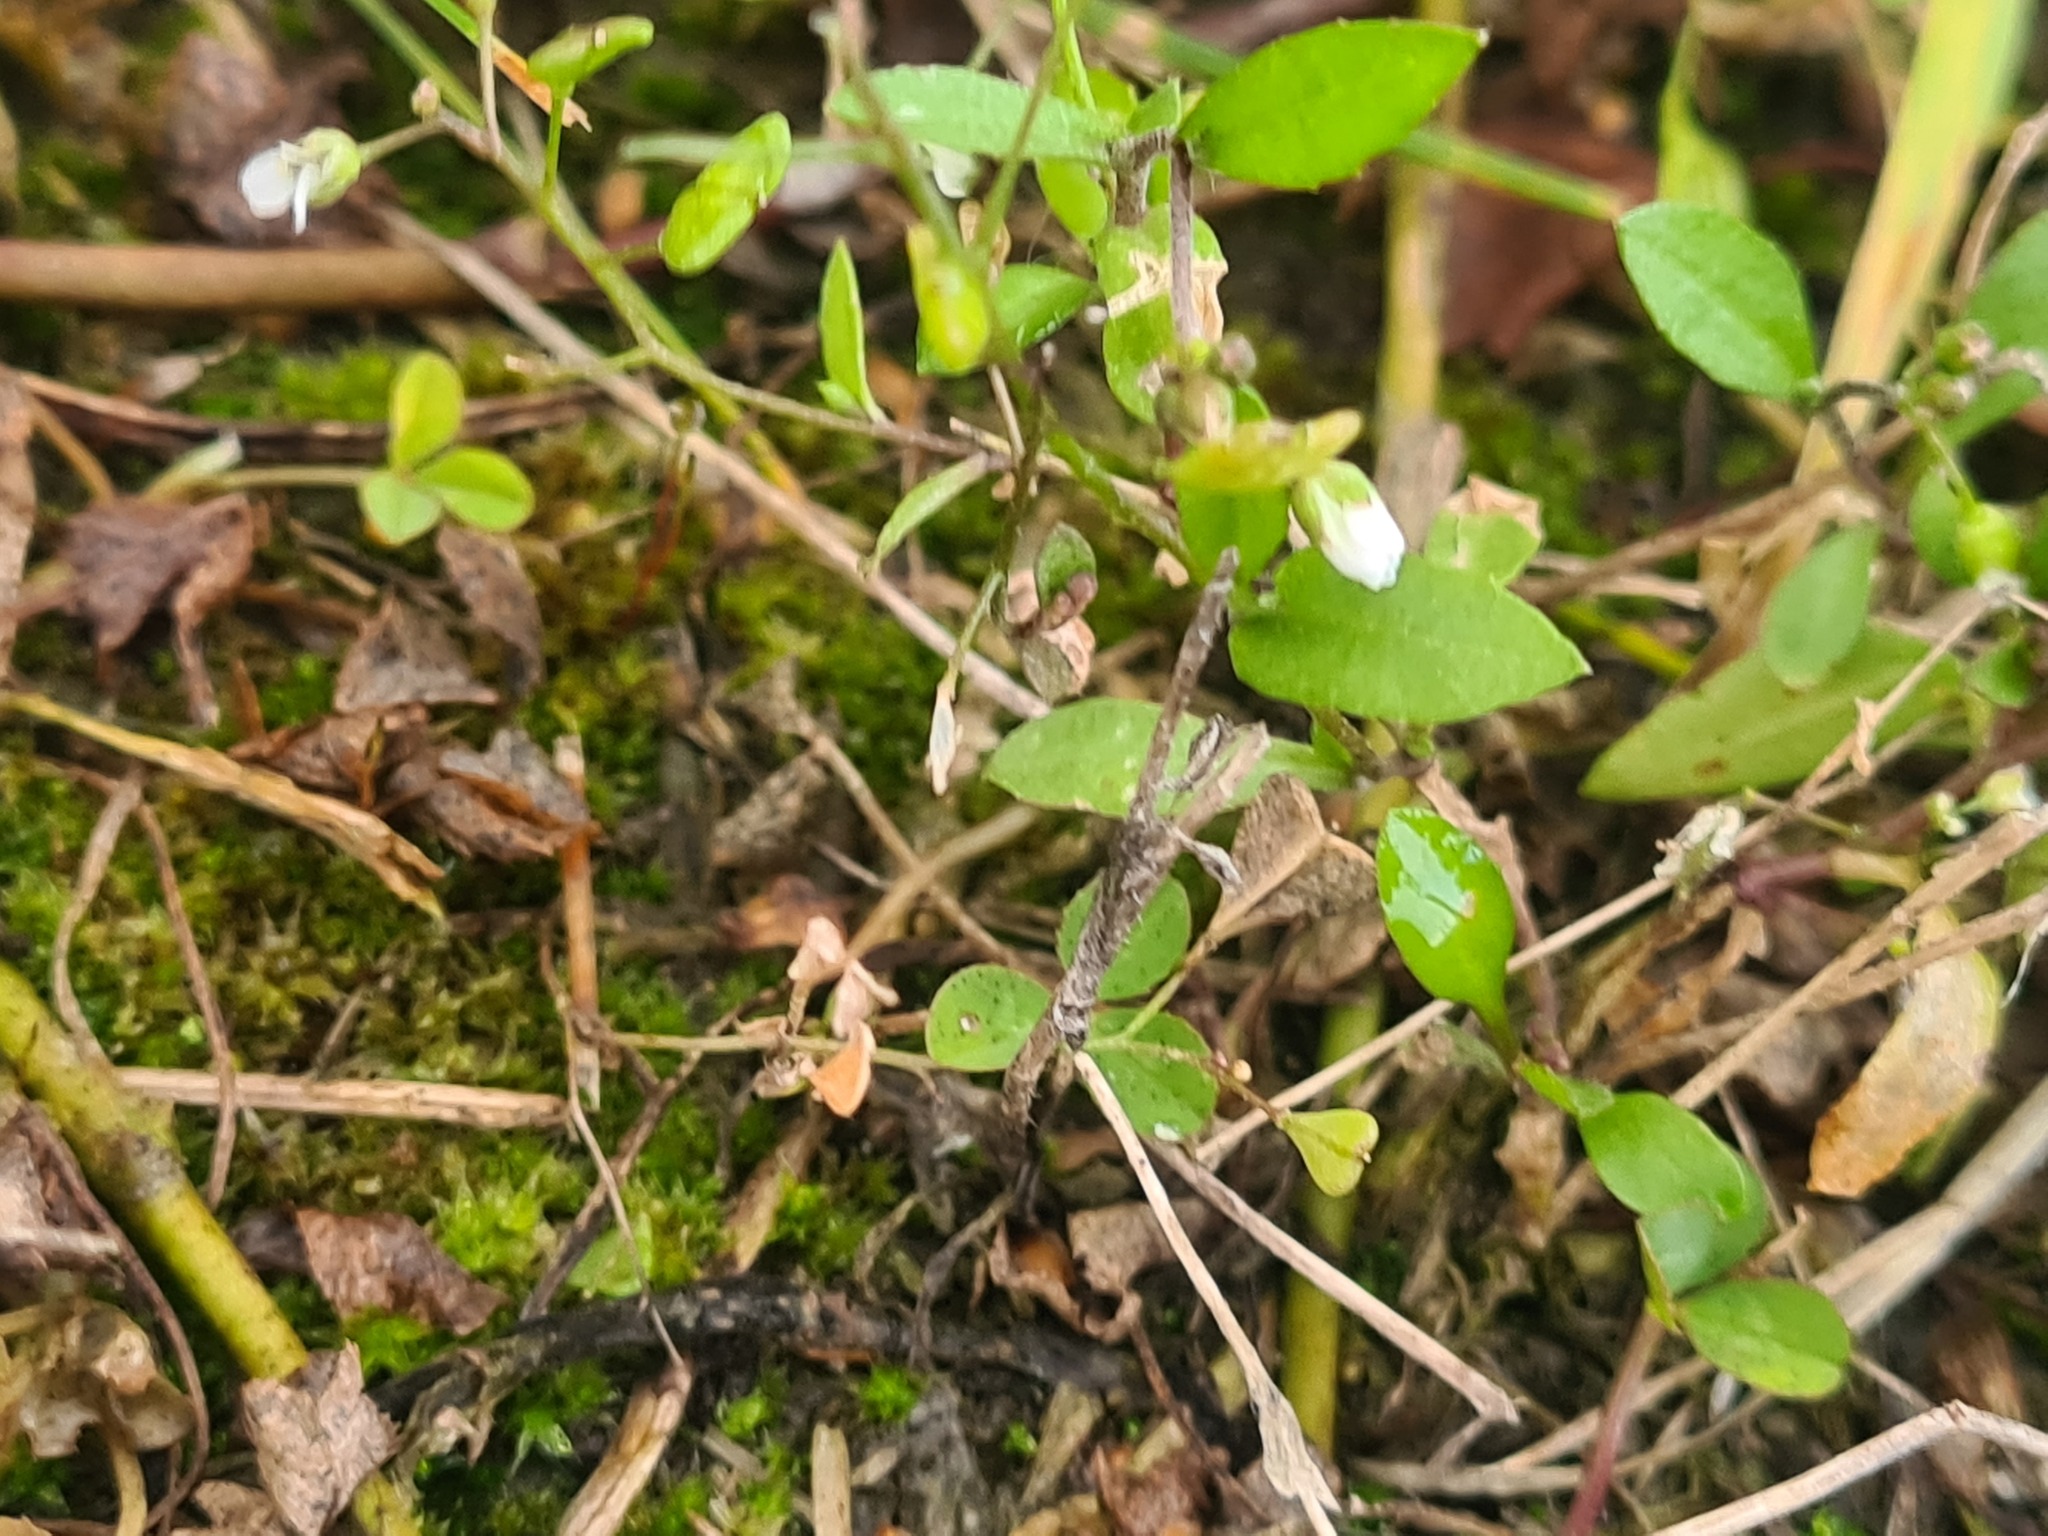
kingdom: Plantae
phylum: Tracheophyta
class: Magnoliopsida
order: Brassicales
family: Brassicaceae
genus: Capsella
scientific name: Capsella bursa-pastoris
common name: Shepherd's purse
